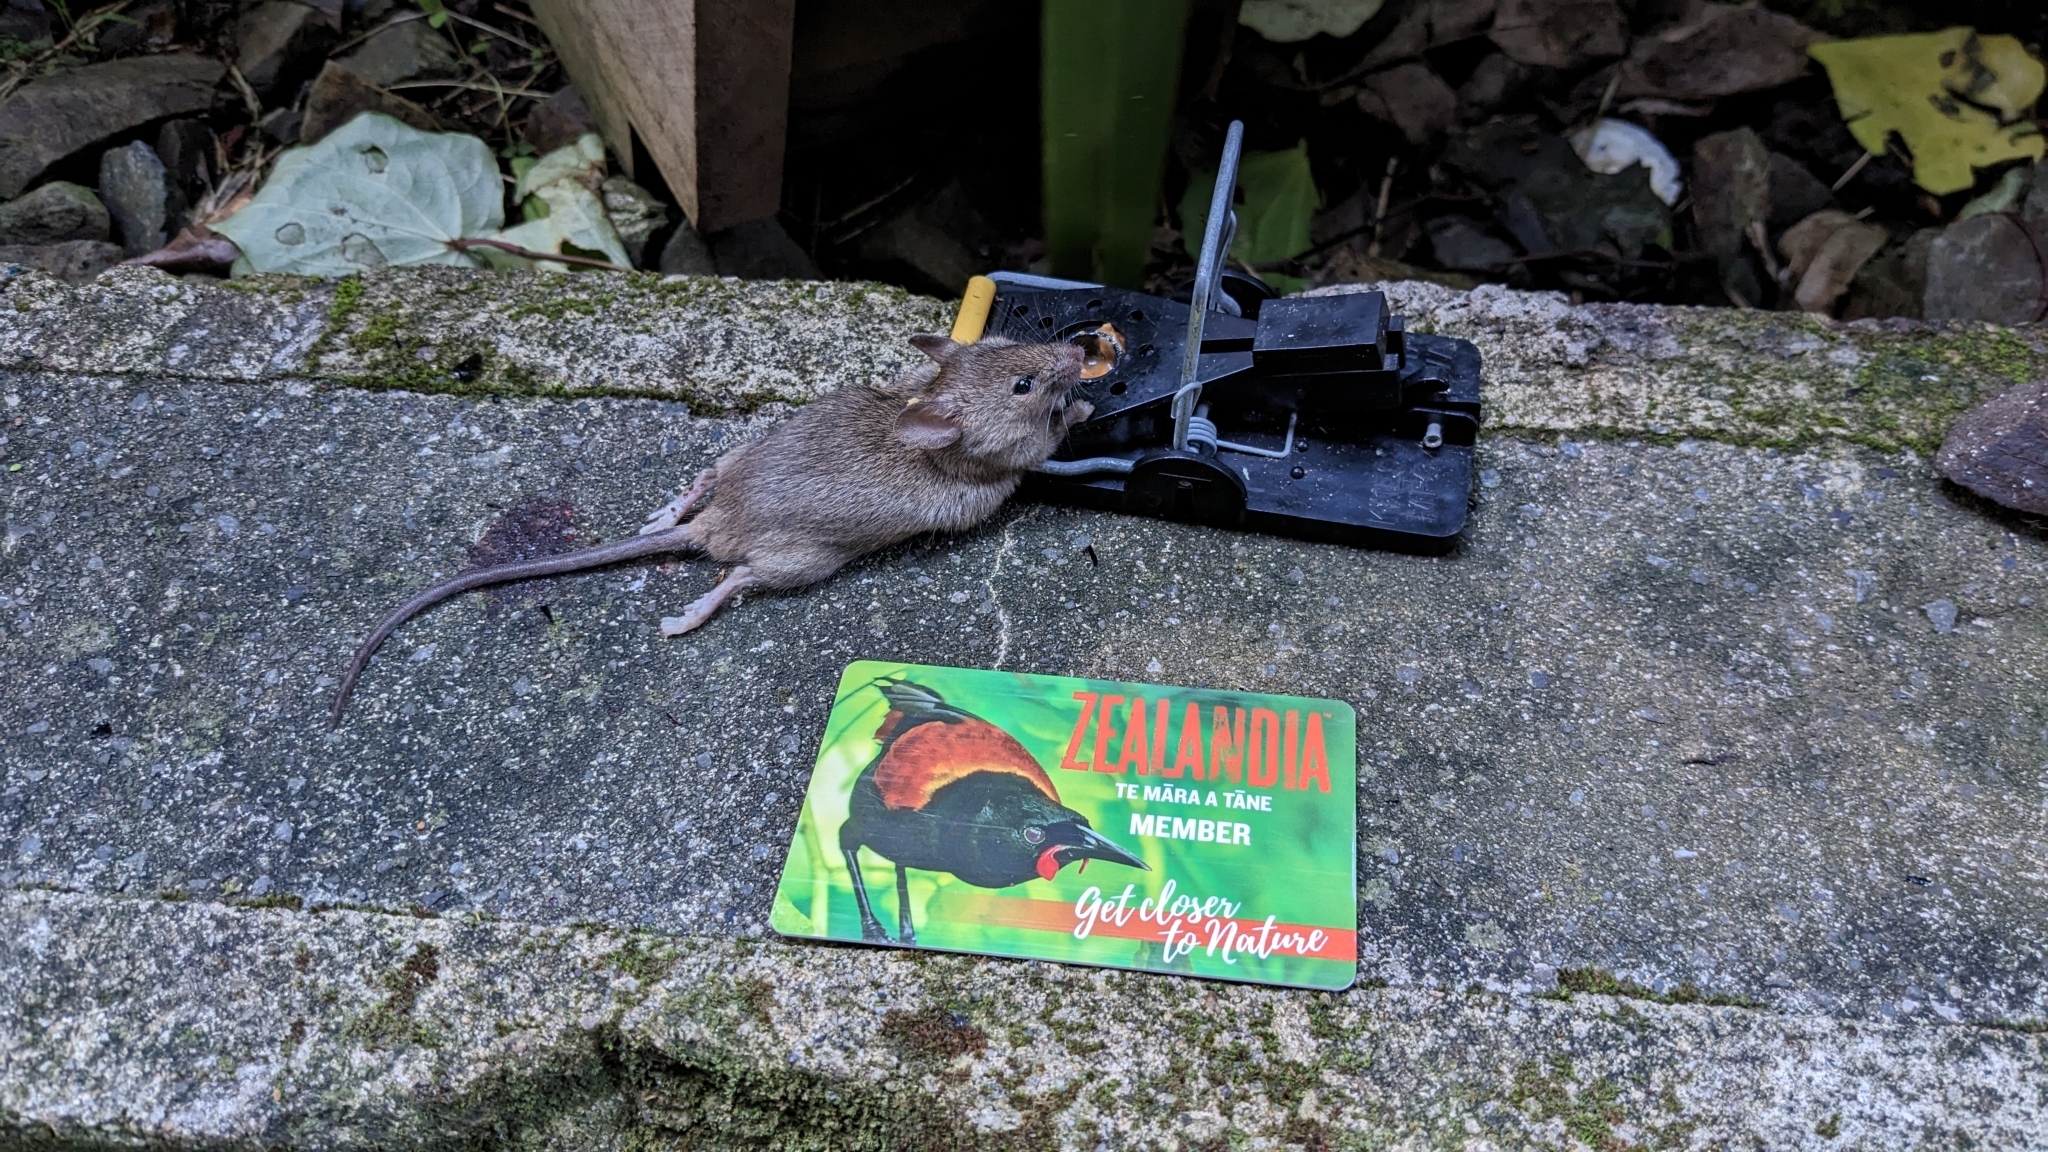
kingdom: Animalia
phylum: Chordata
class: Mammalia
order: Rodentia
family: Muridae
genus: Mus
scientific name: Mus musculus
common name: House mouse
